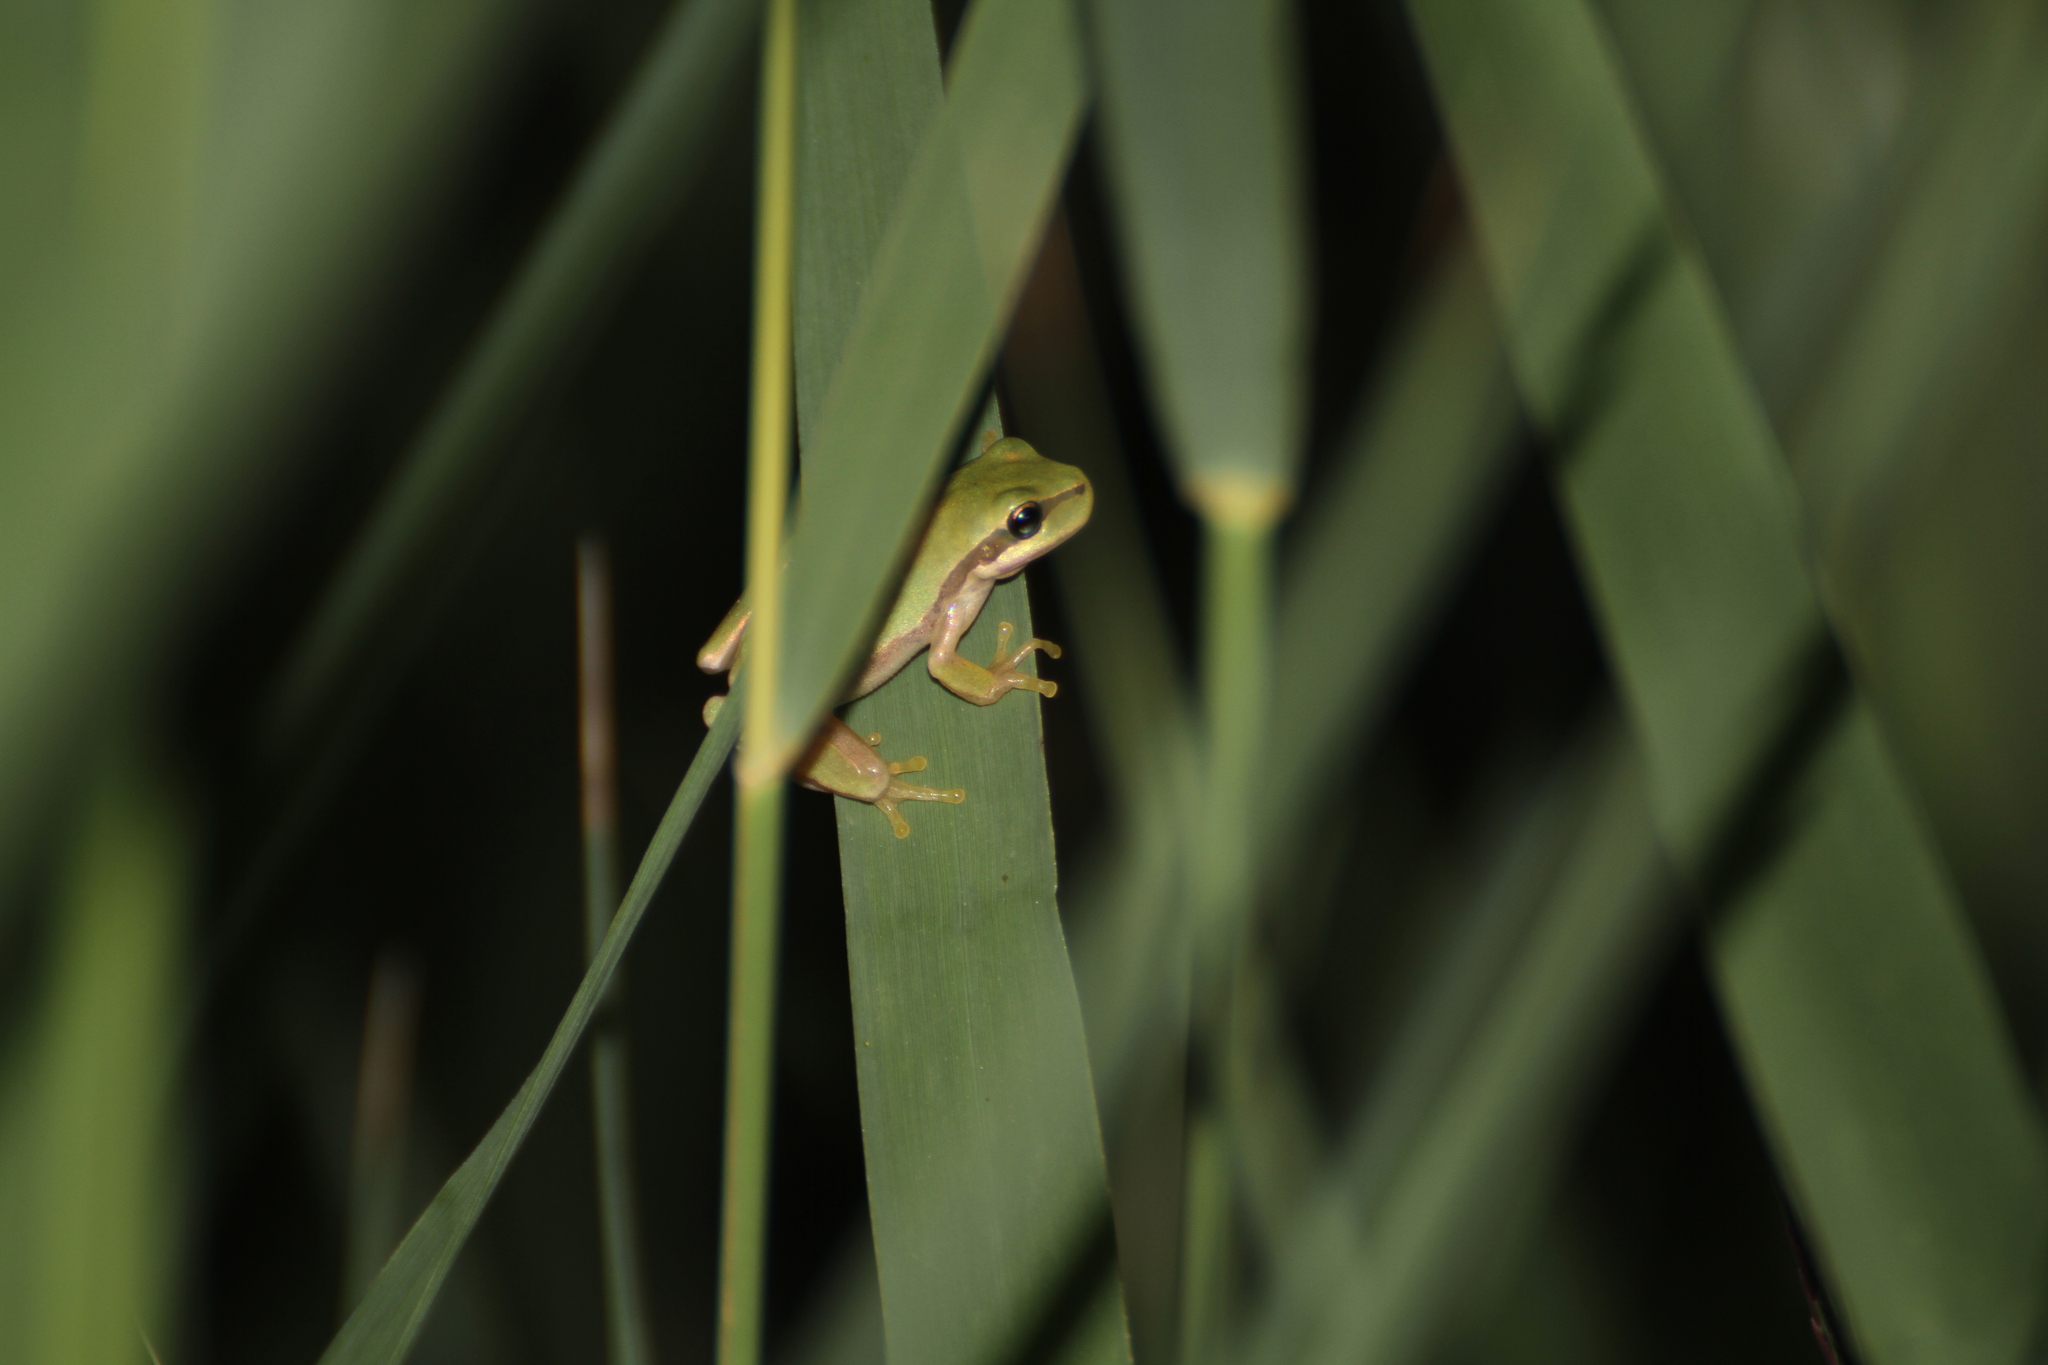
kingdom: Animalia
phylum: Chordata
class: Amphibia
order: Anura
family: Hylidae
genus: Hyla
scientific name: Hyla meridionalis
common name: Stripeless tree frog
